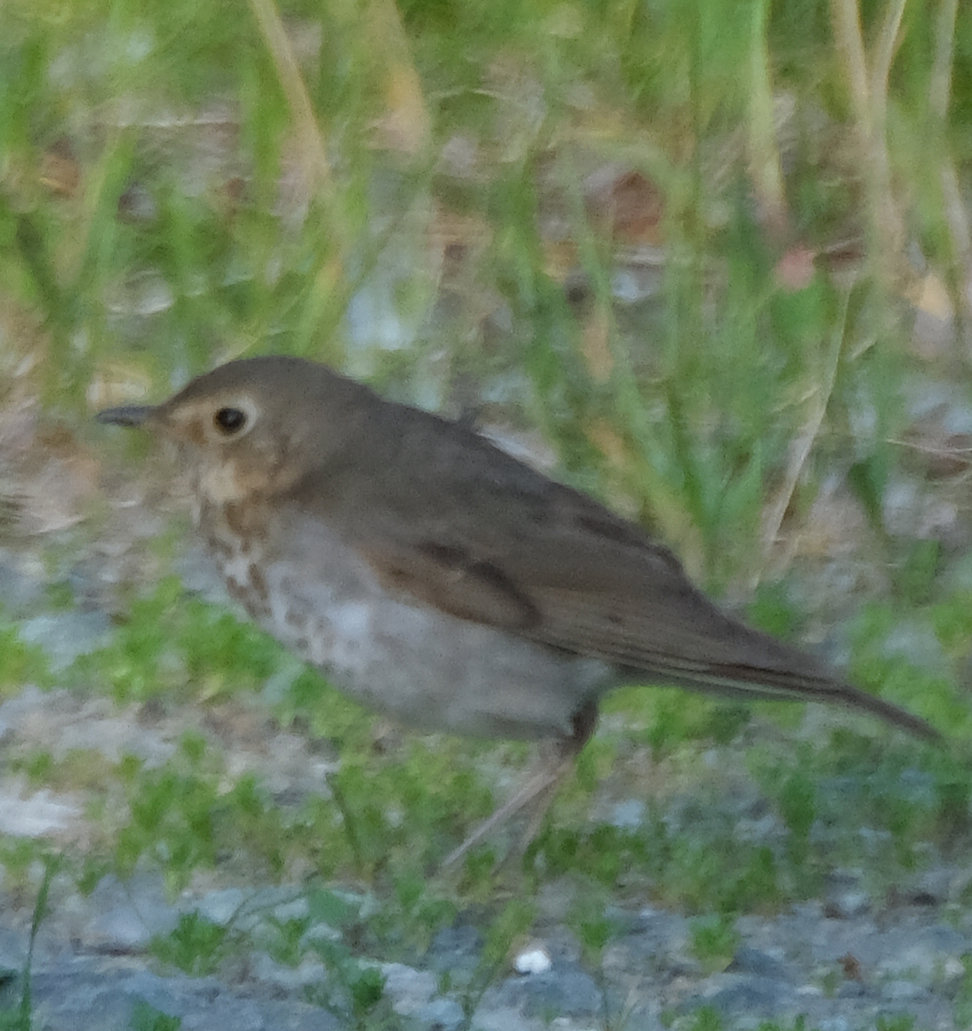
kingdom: Animalia
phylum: Chordata
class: Aves
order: Passeriformes
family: Turdidae
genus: Catharus
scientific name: Catharus ustulatus
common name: Swainson's thrush
